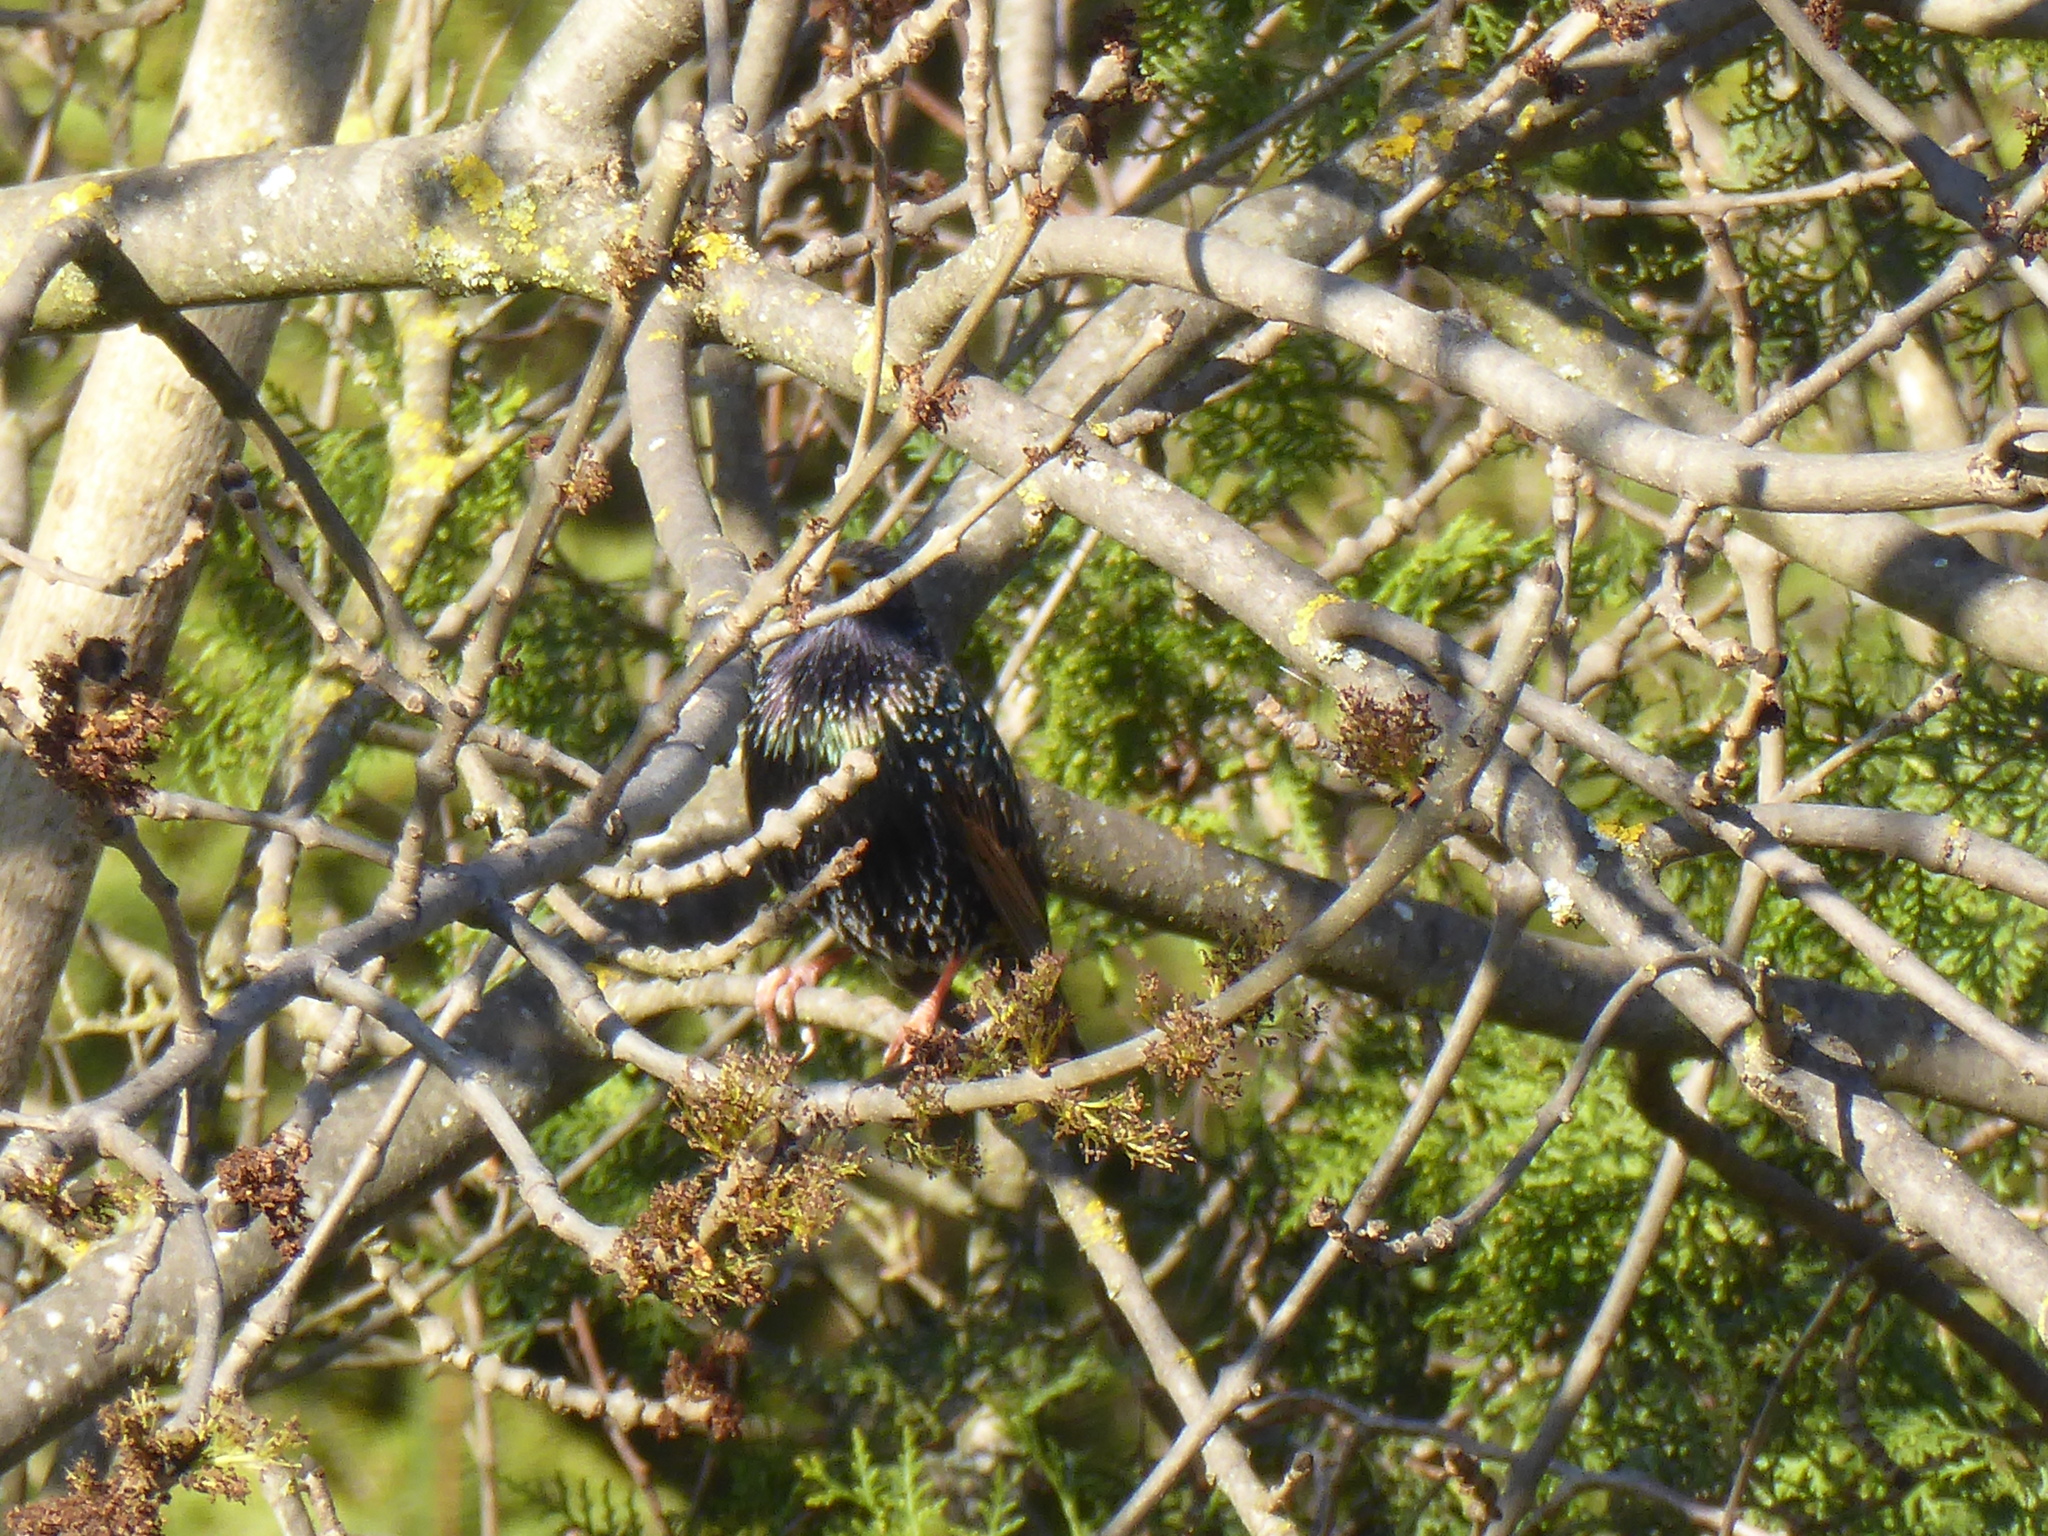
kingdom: Animalia
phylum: Chordata
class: Aves
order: Passeriformes
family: Sturnidae
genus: Sturnus
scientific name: Sturnus vulgaris
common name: Common starling
